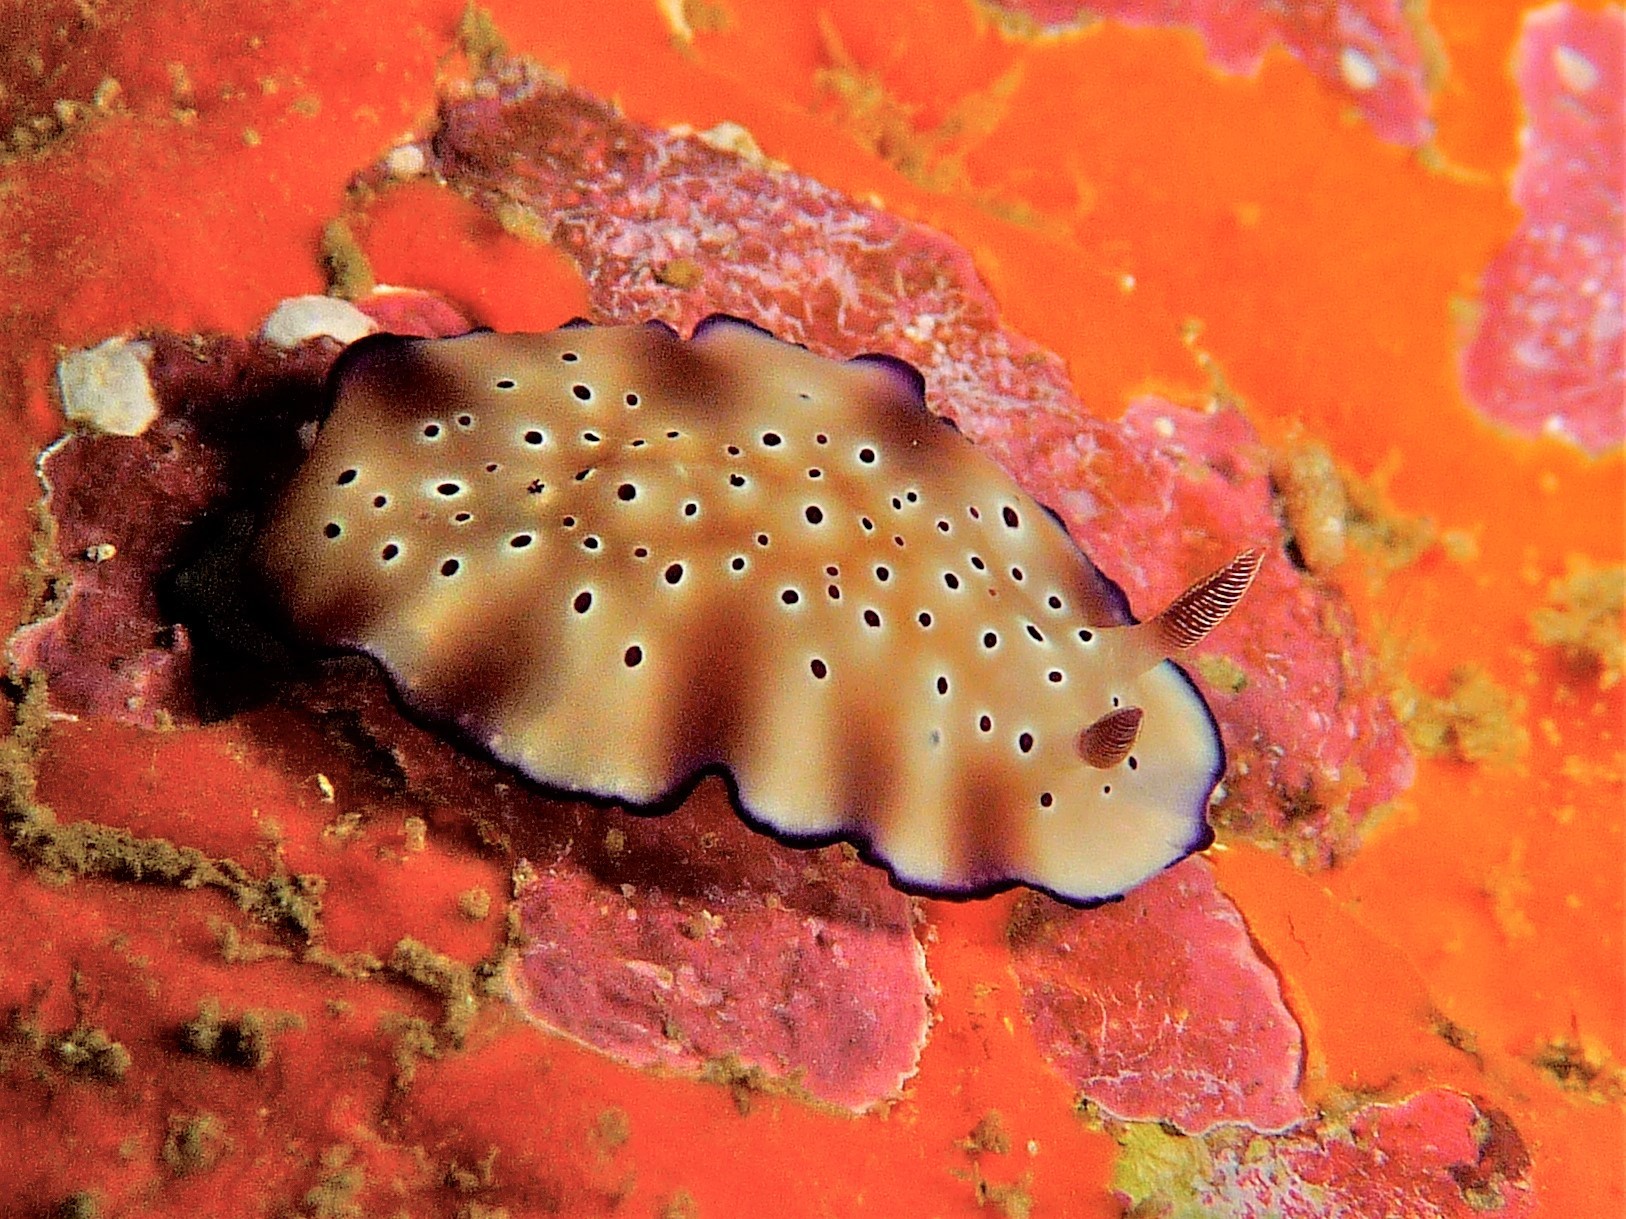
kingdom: Animalia
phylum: Mollusca
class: Gastropoda
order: Nudibranchia
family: Chromodorididae
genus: Hypselodoris
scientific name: Hypselodoris tryoni
